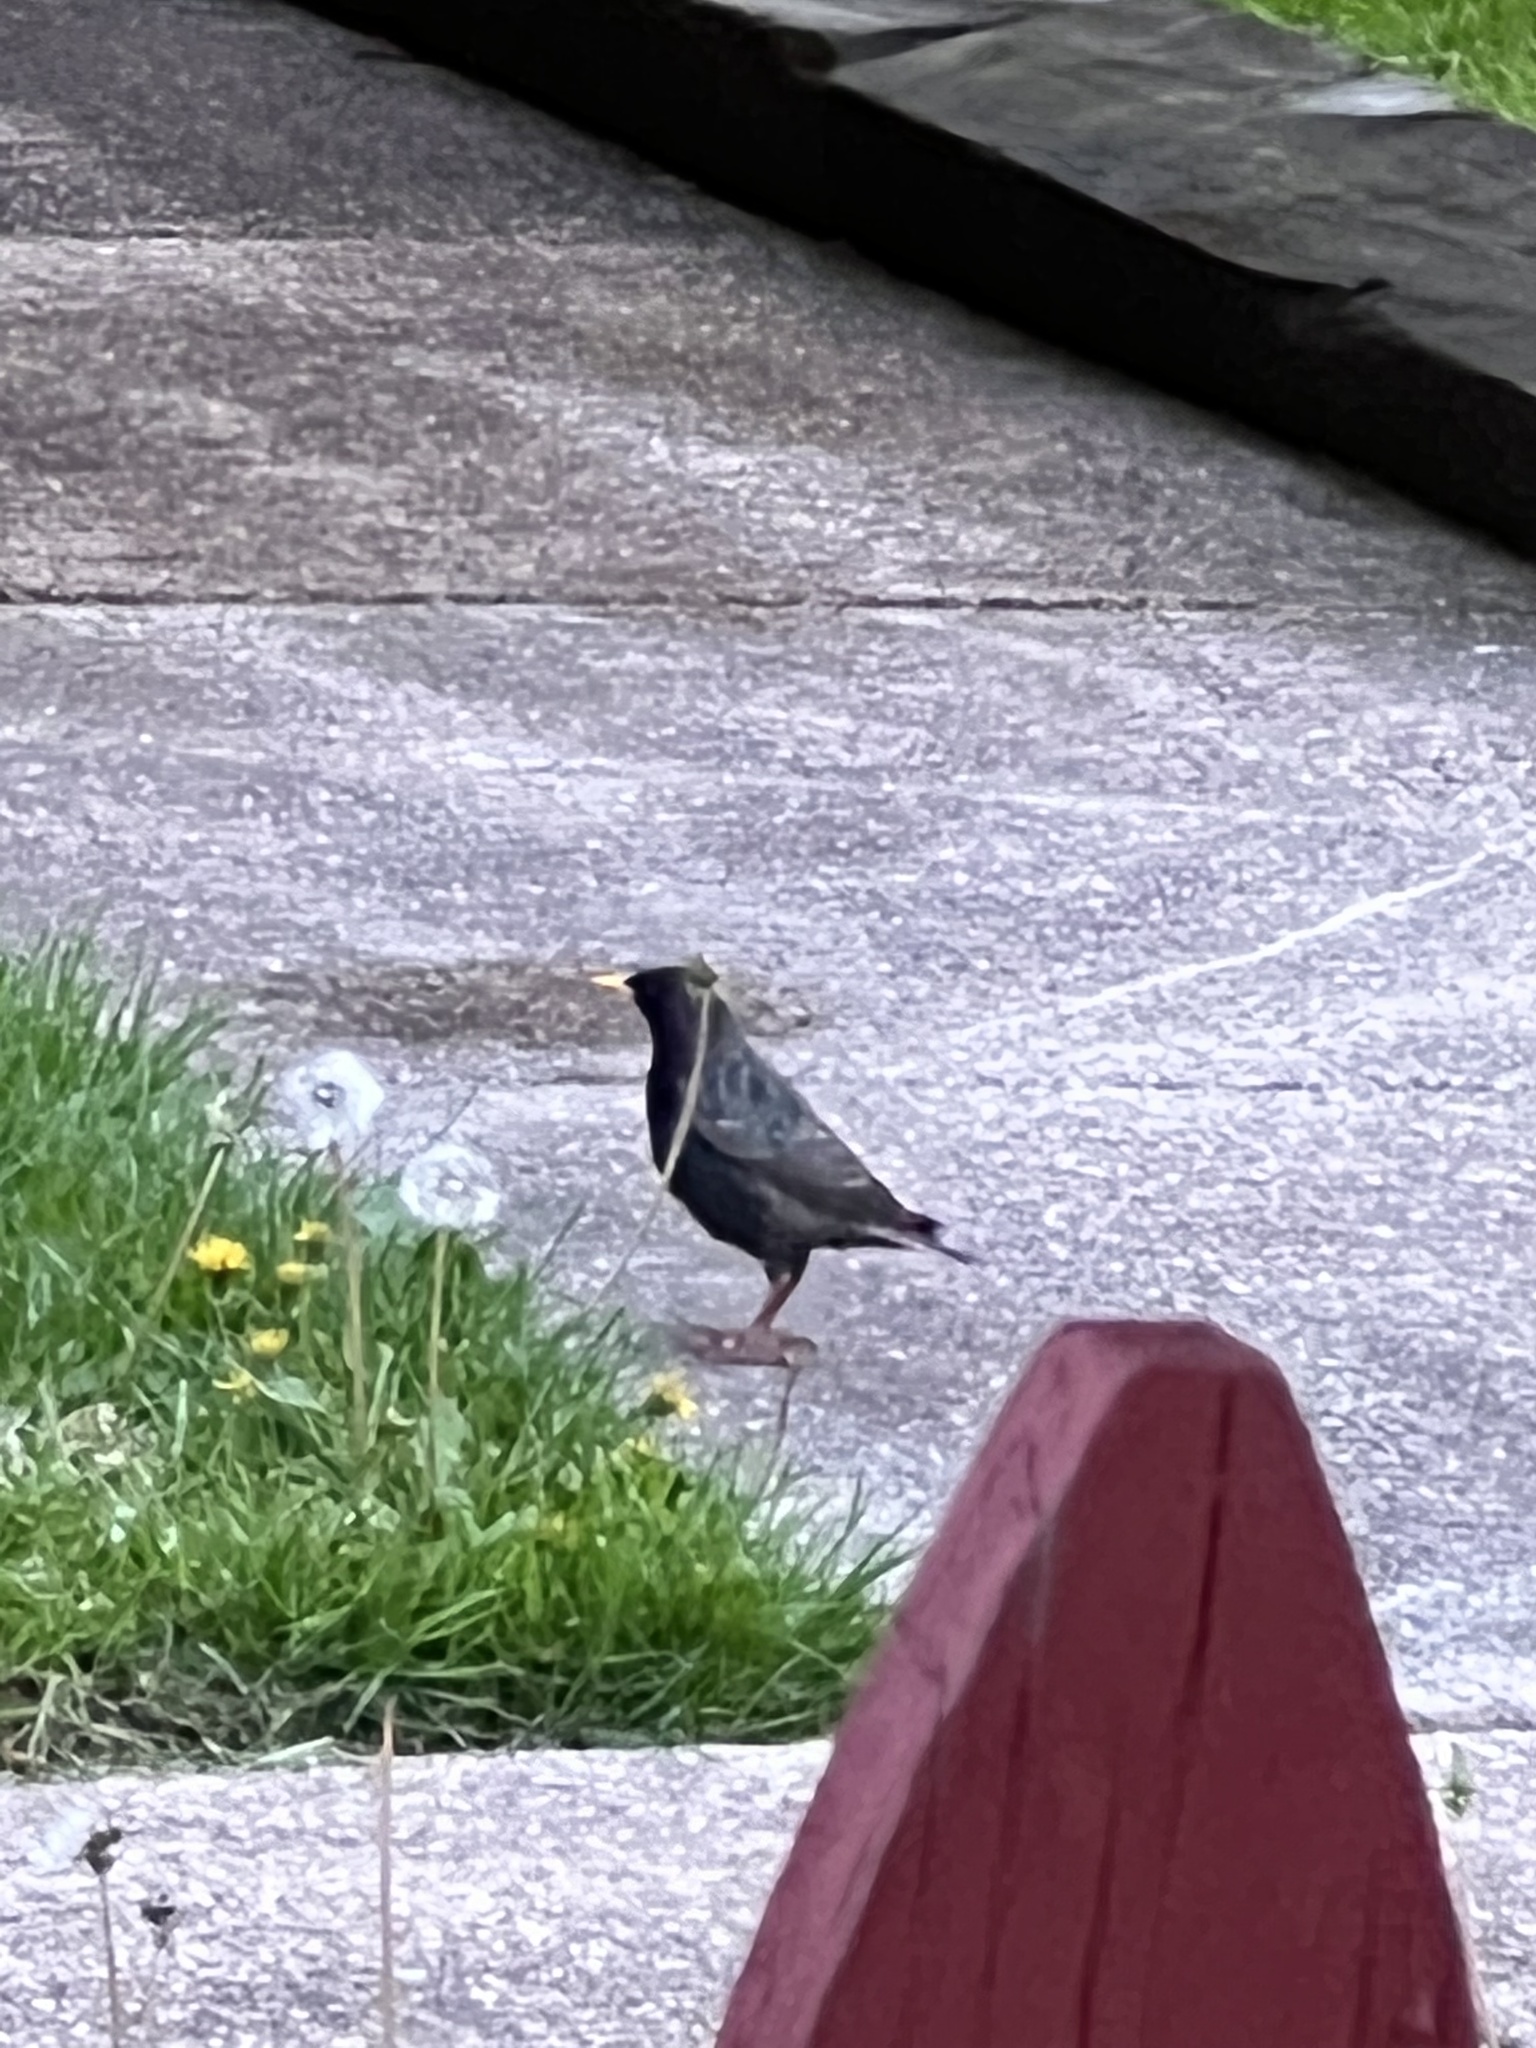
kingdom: Animalia
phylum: Chordata
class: Aves
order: Passeriformes
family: Sturnidae
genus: Sturnus
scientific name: Sturnus vulgaris
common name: Common starling
